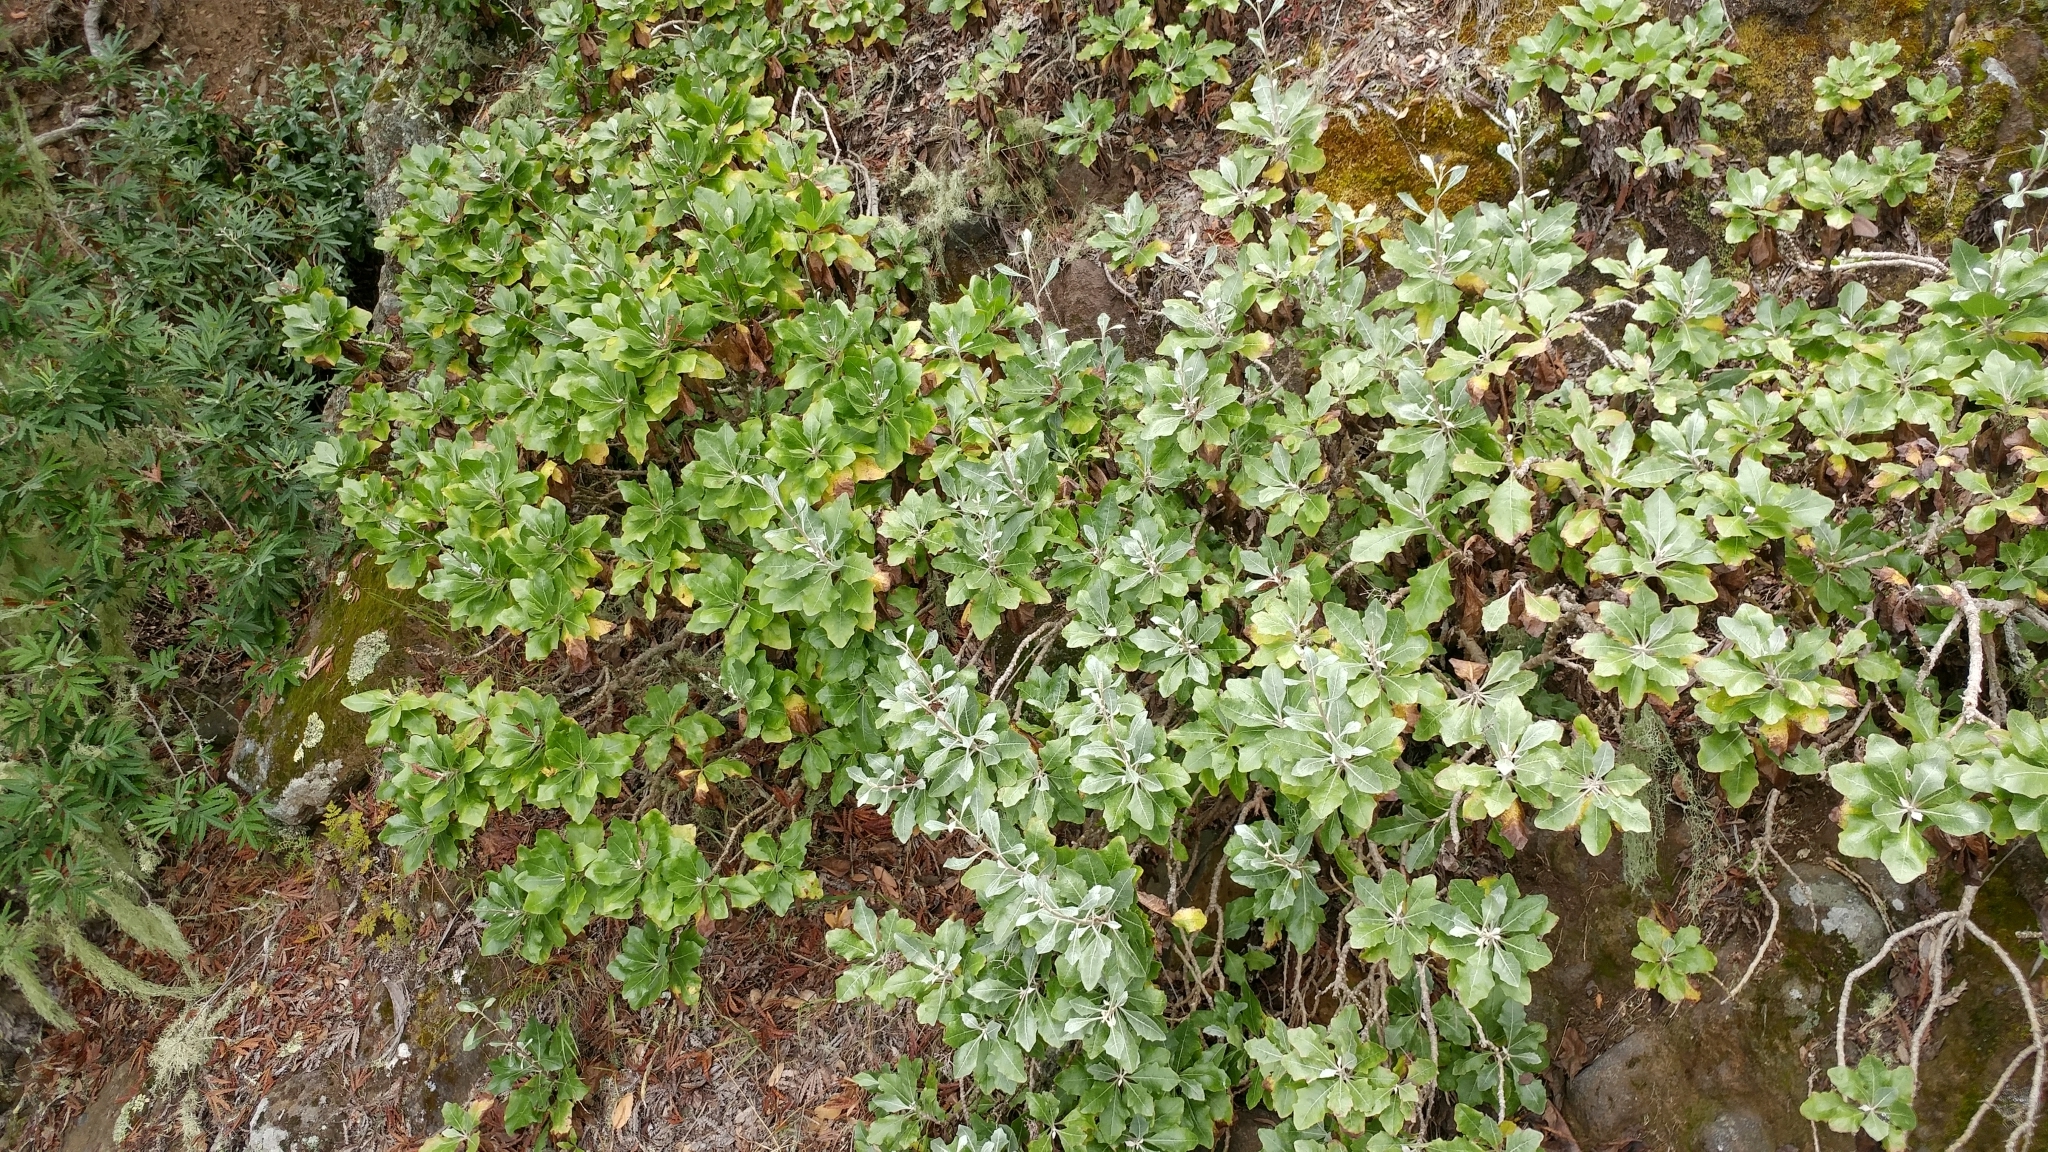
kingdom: Plantae
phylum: Tracheophyta
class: Magnoliopsida
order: Asterales
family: Asteraceae
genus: Munzothamnus
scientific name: Munzothamnus blairii
